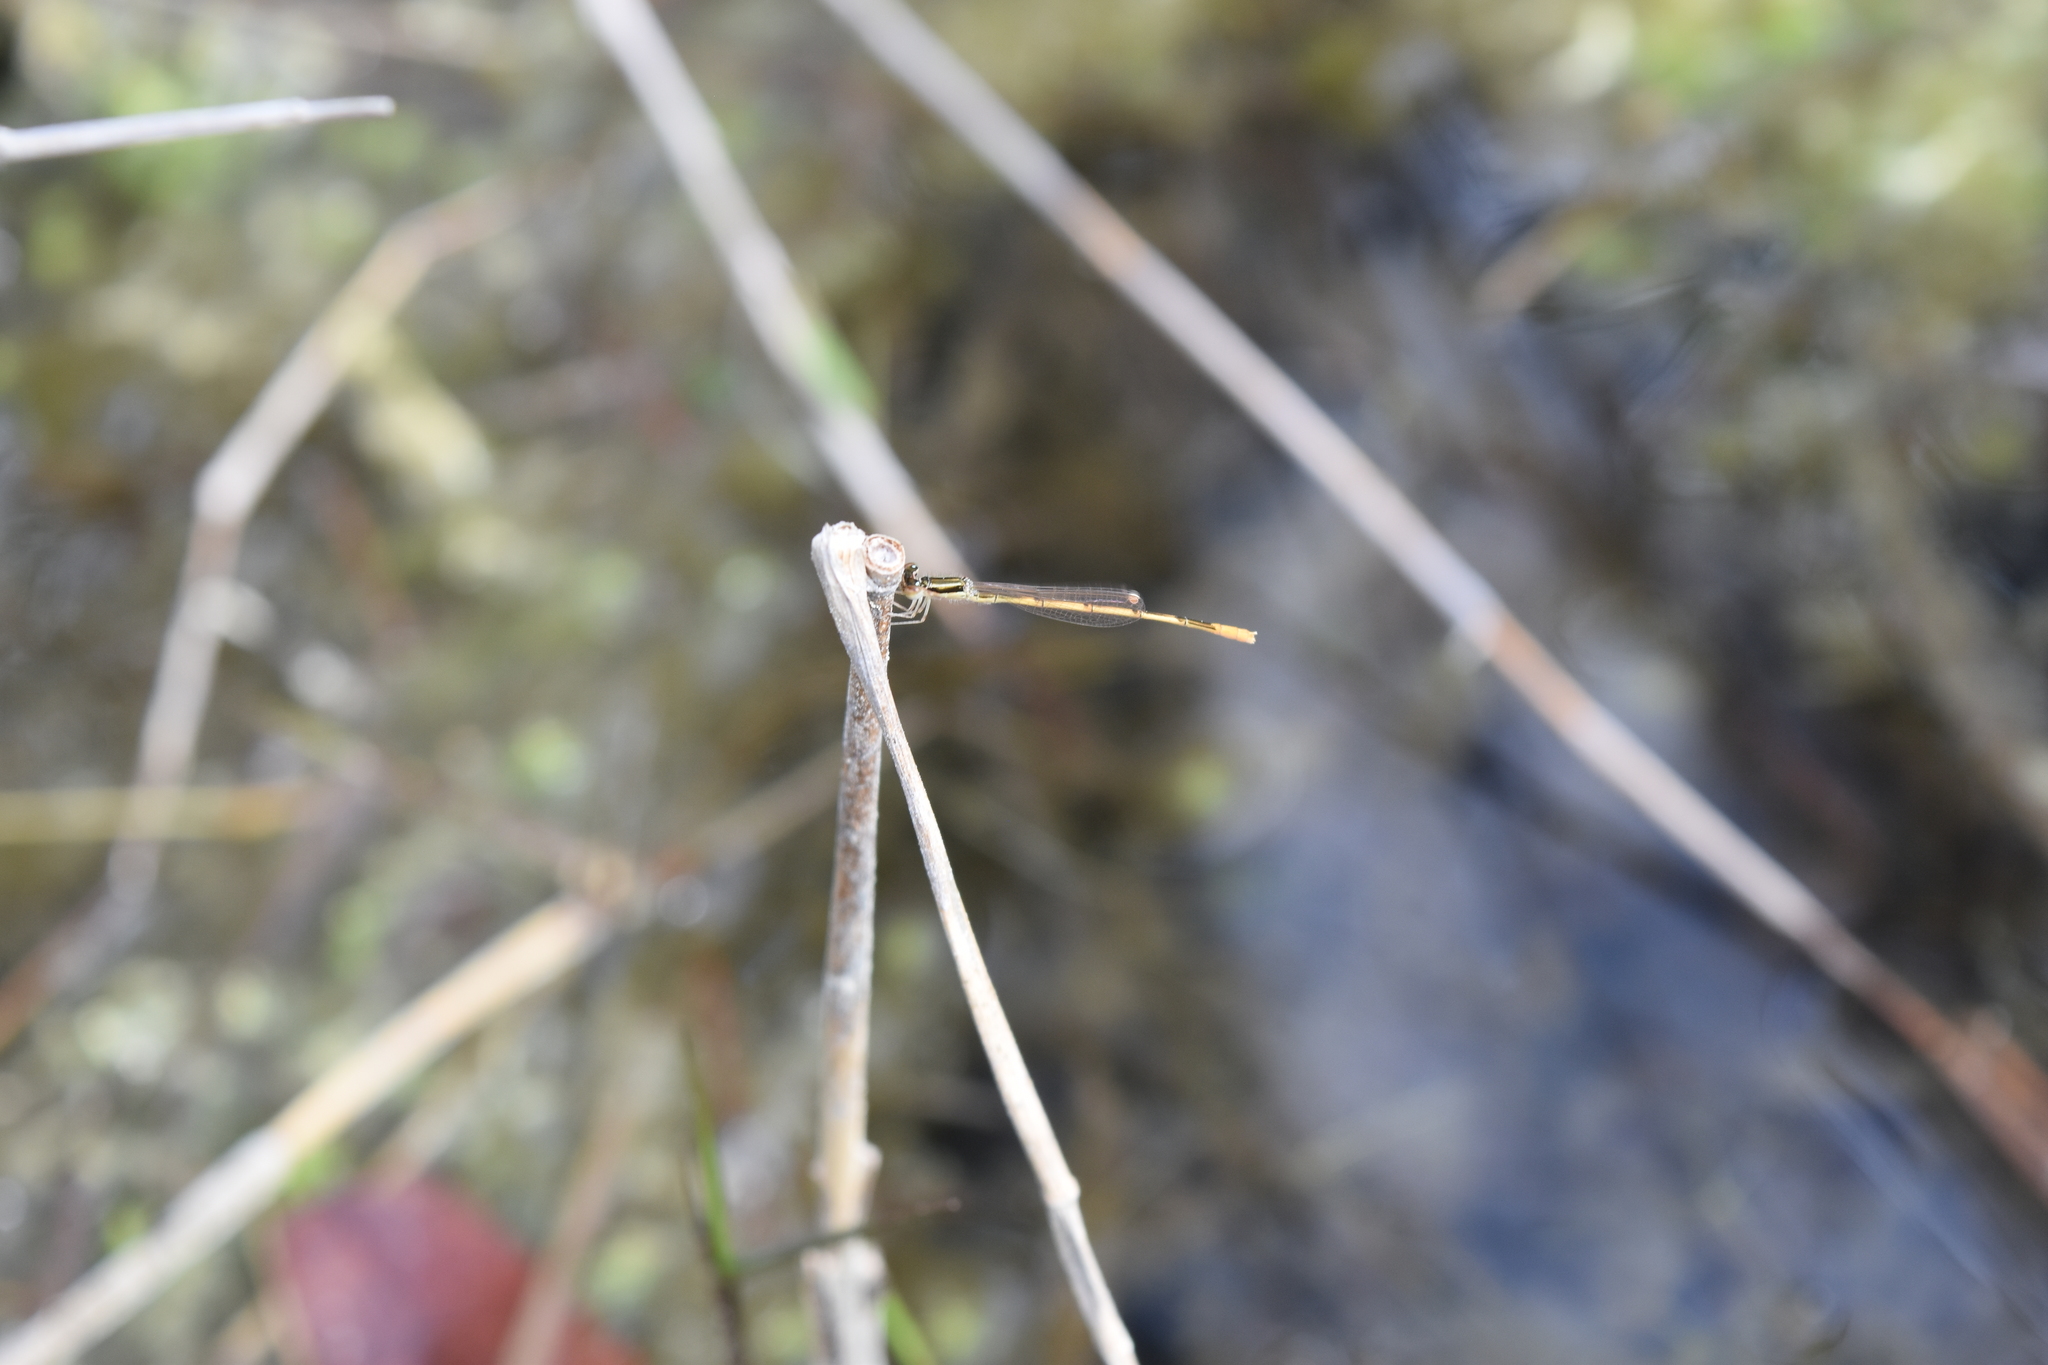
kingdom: Animalia
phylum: Arthropoda
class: Insecta
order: Odonata
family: Coenagrionidae
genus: Ischnura
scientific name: Ischnura hastata
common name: Citrine forktail
